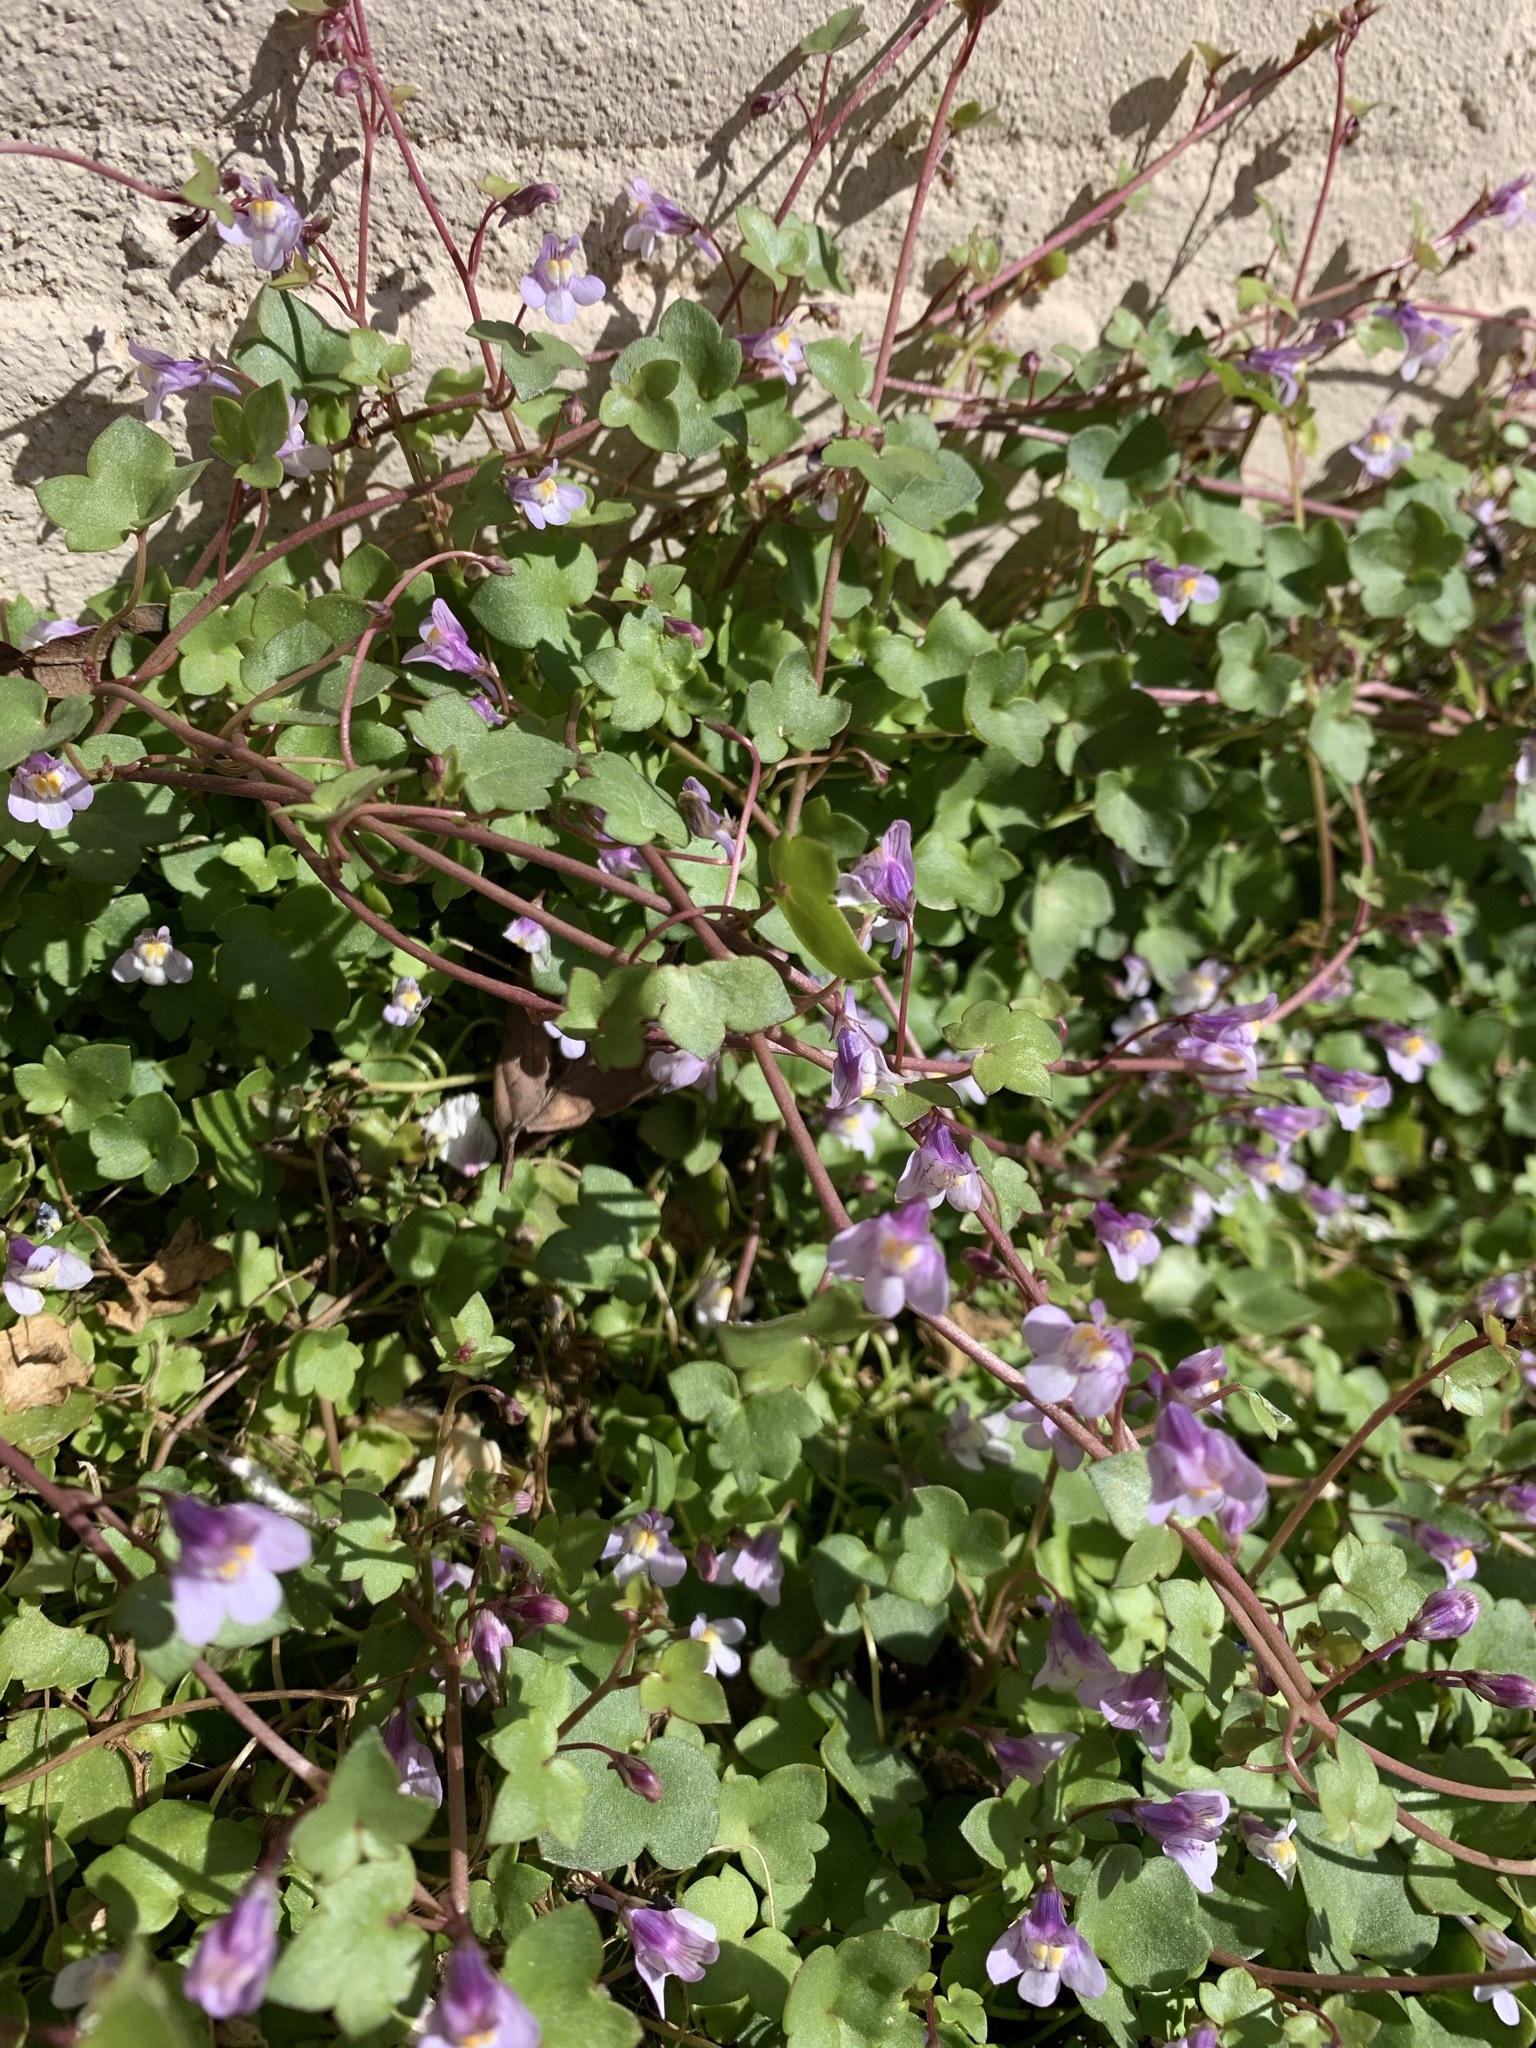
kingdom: Plantae
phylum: Tracheophyta
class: Magnoliopsida
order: Lamiales
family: Plantaginaceae
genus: Cymbalaria
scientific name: Cymbalaria muralis
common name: Ivy-leaved toadflax
